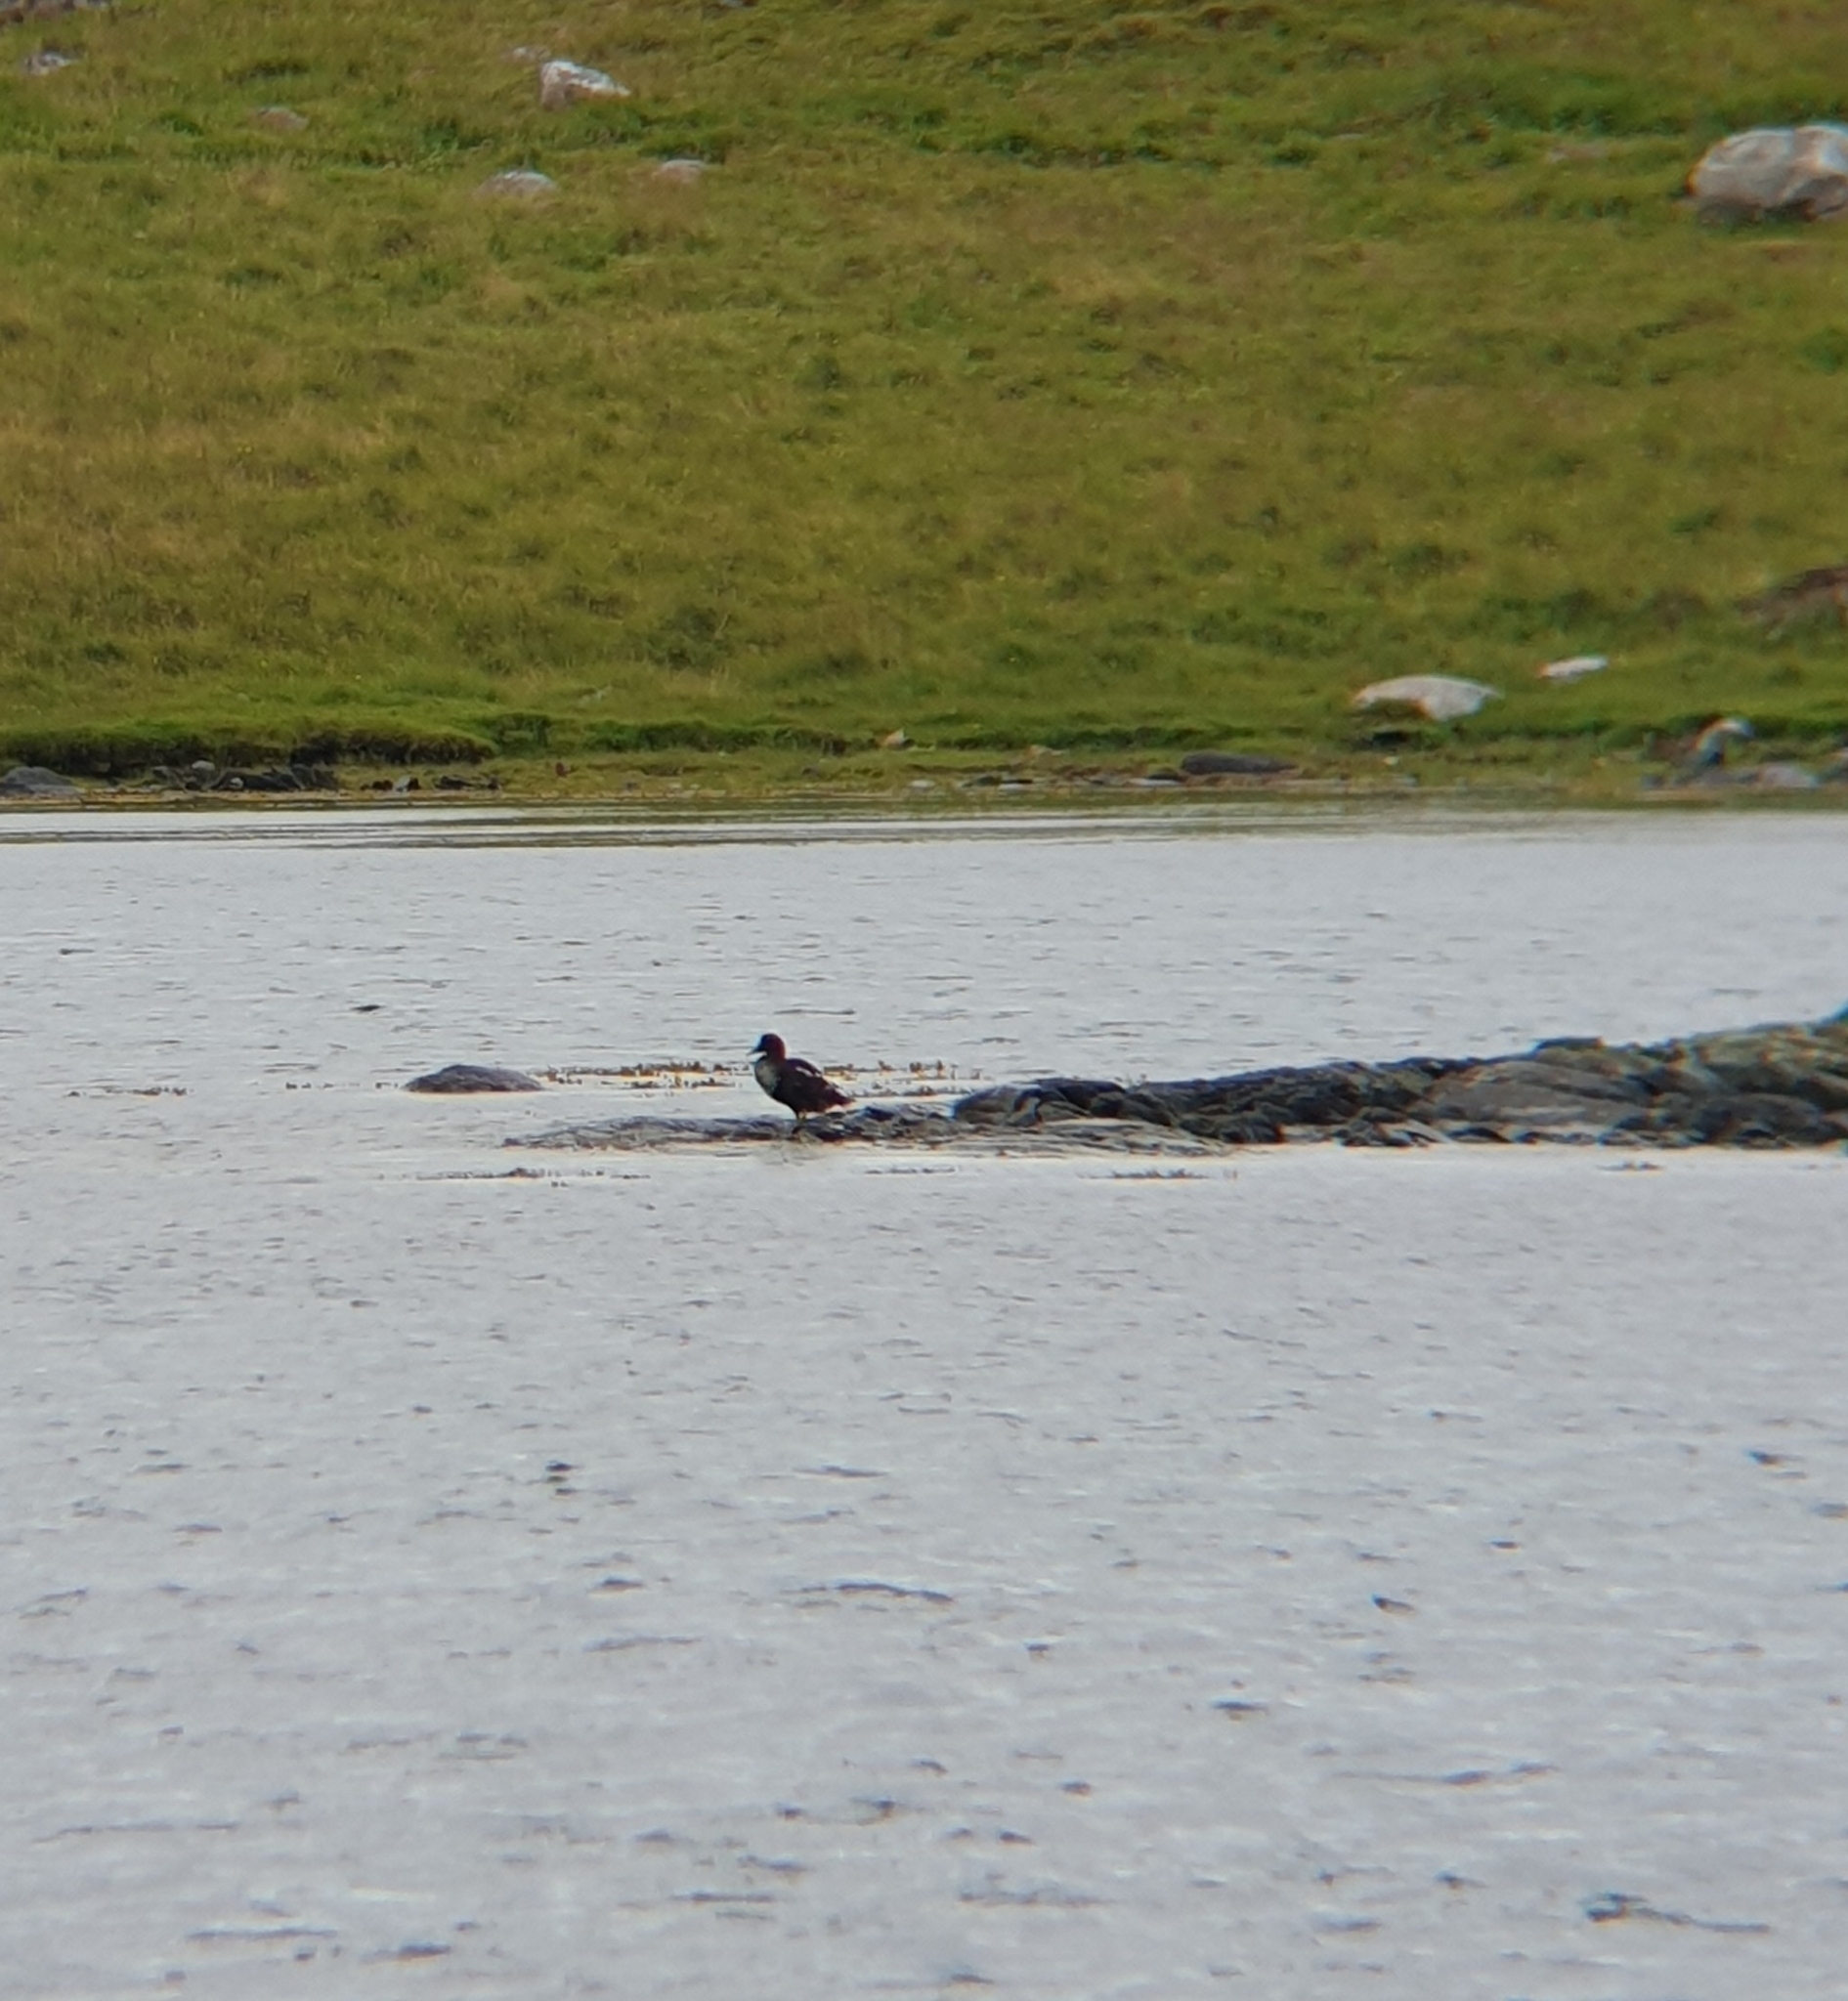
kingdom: Animalia
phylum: Chordata
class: Aves
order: Anseriformes
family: Anatidae
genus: Somateria
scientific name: Somateria mollissima
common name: Common eider
